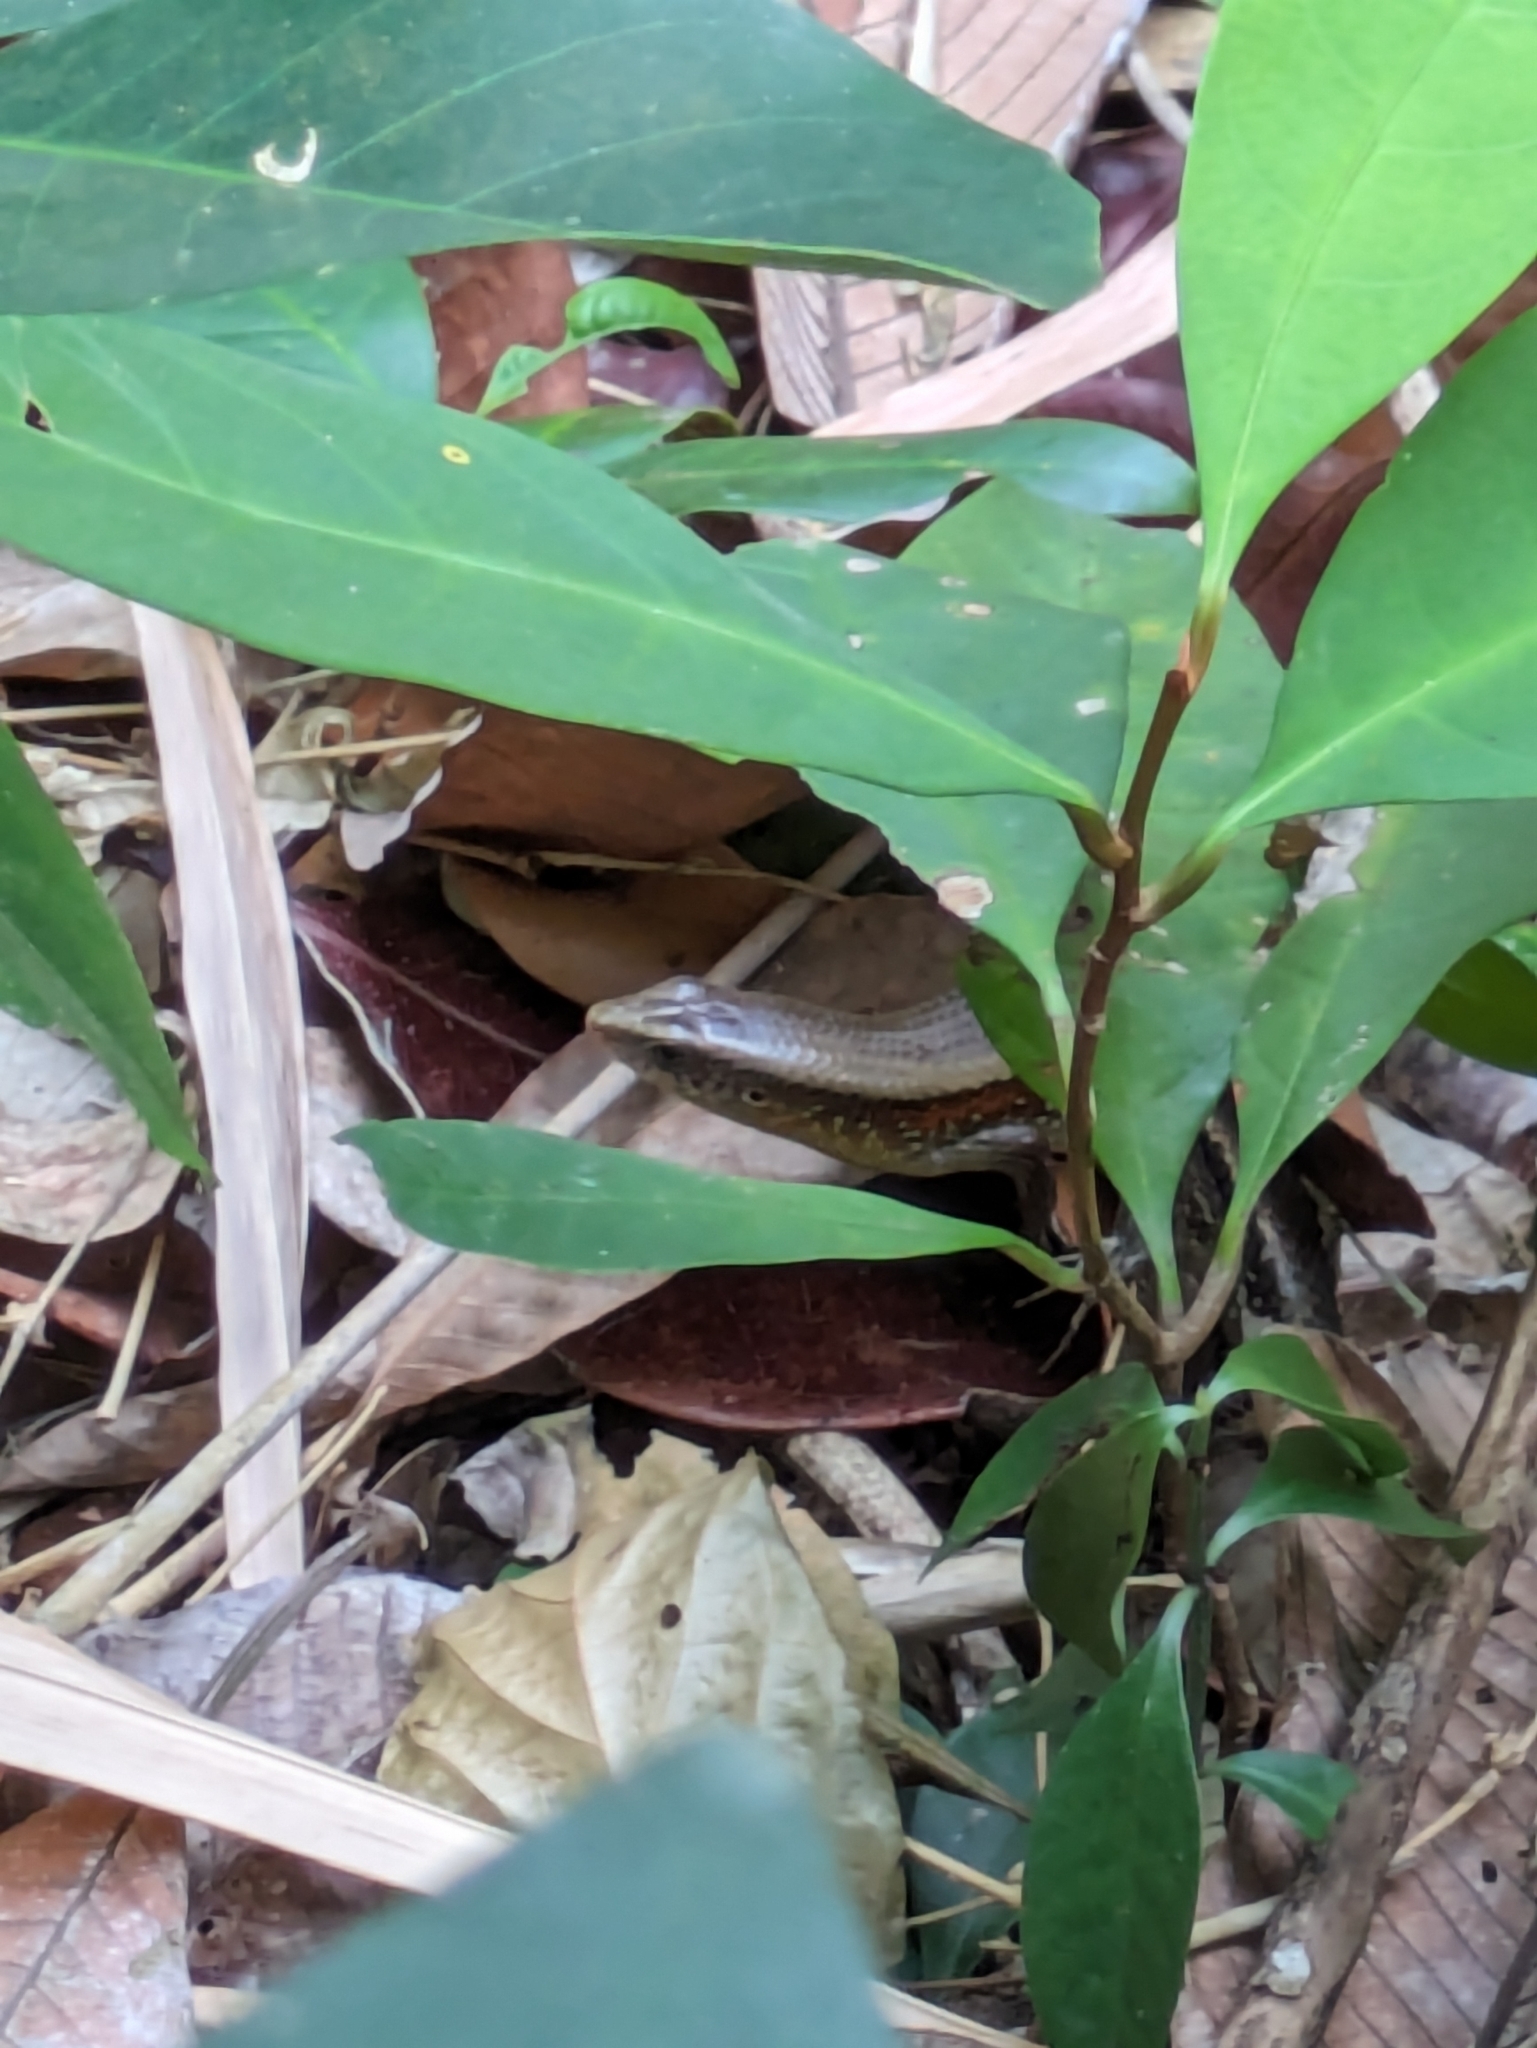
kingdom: Animalia
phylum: Chordata
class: Squamata
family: Scincidae
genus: Eutropis
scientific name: Eutropis multifasciata
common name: Common mabuya
